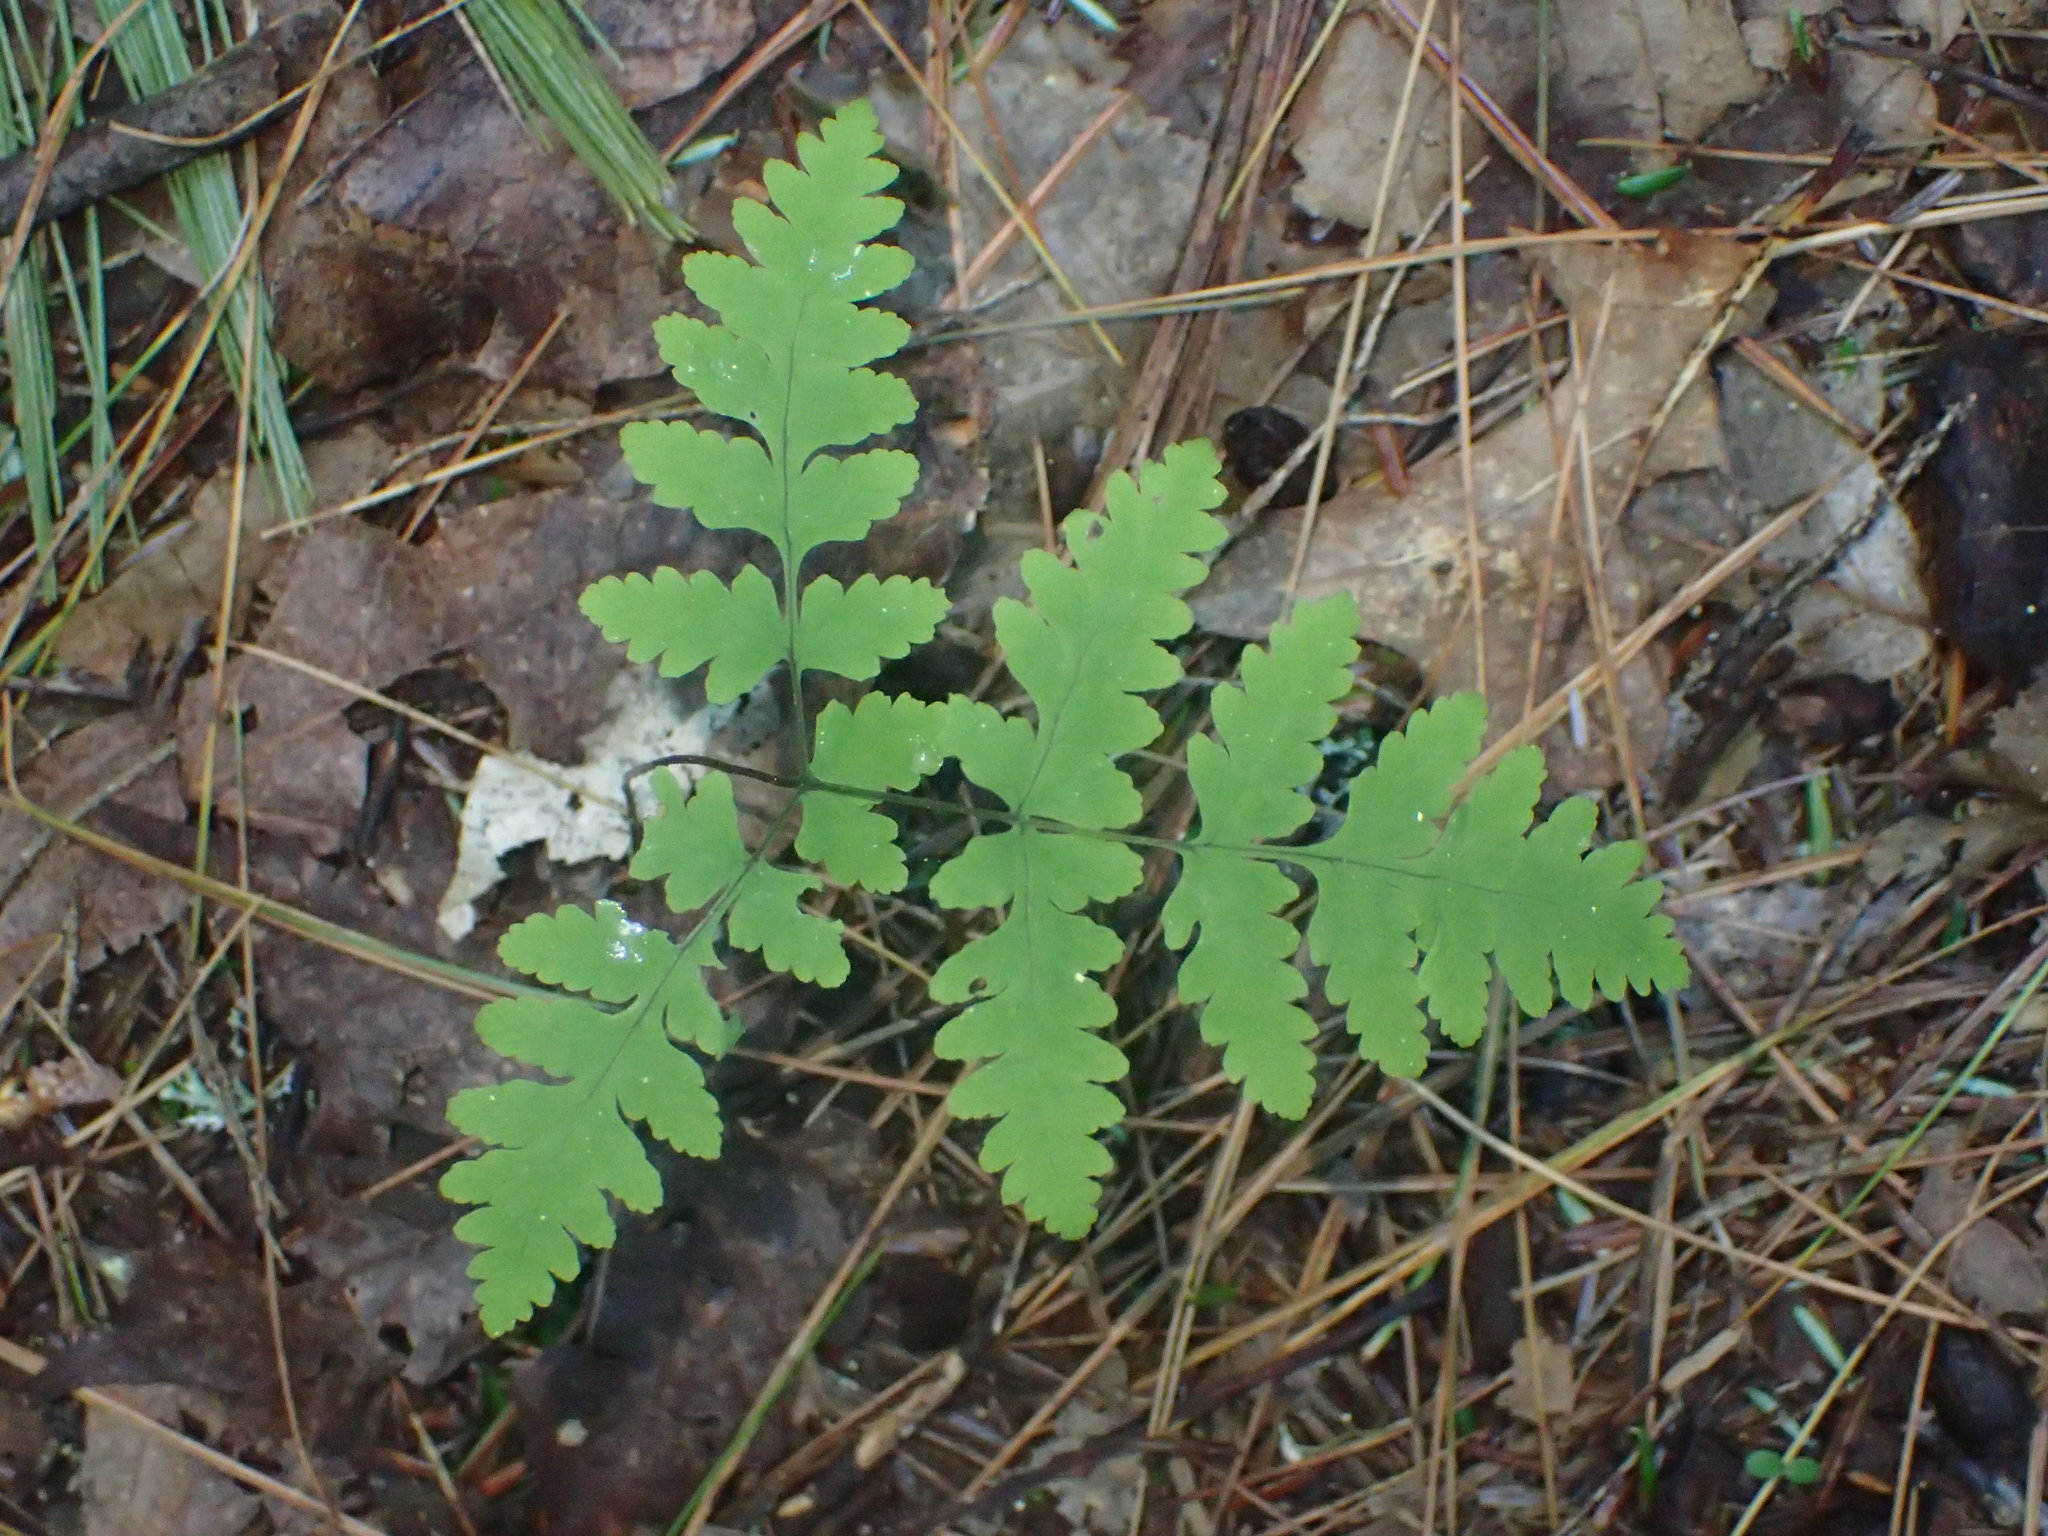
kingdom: Plantae
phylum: Tracheophyta
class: Polypodiopsida
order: Polypodiales
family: Cystopteridaceae
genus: Gymnocarpium
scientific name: Gymnocarpium dryopteris
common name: Oak fern
